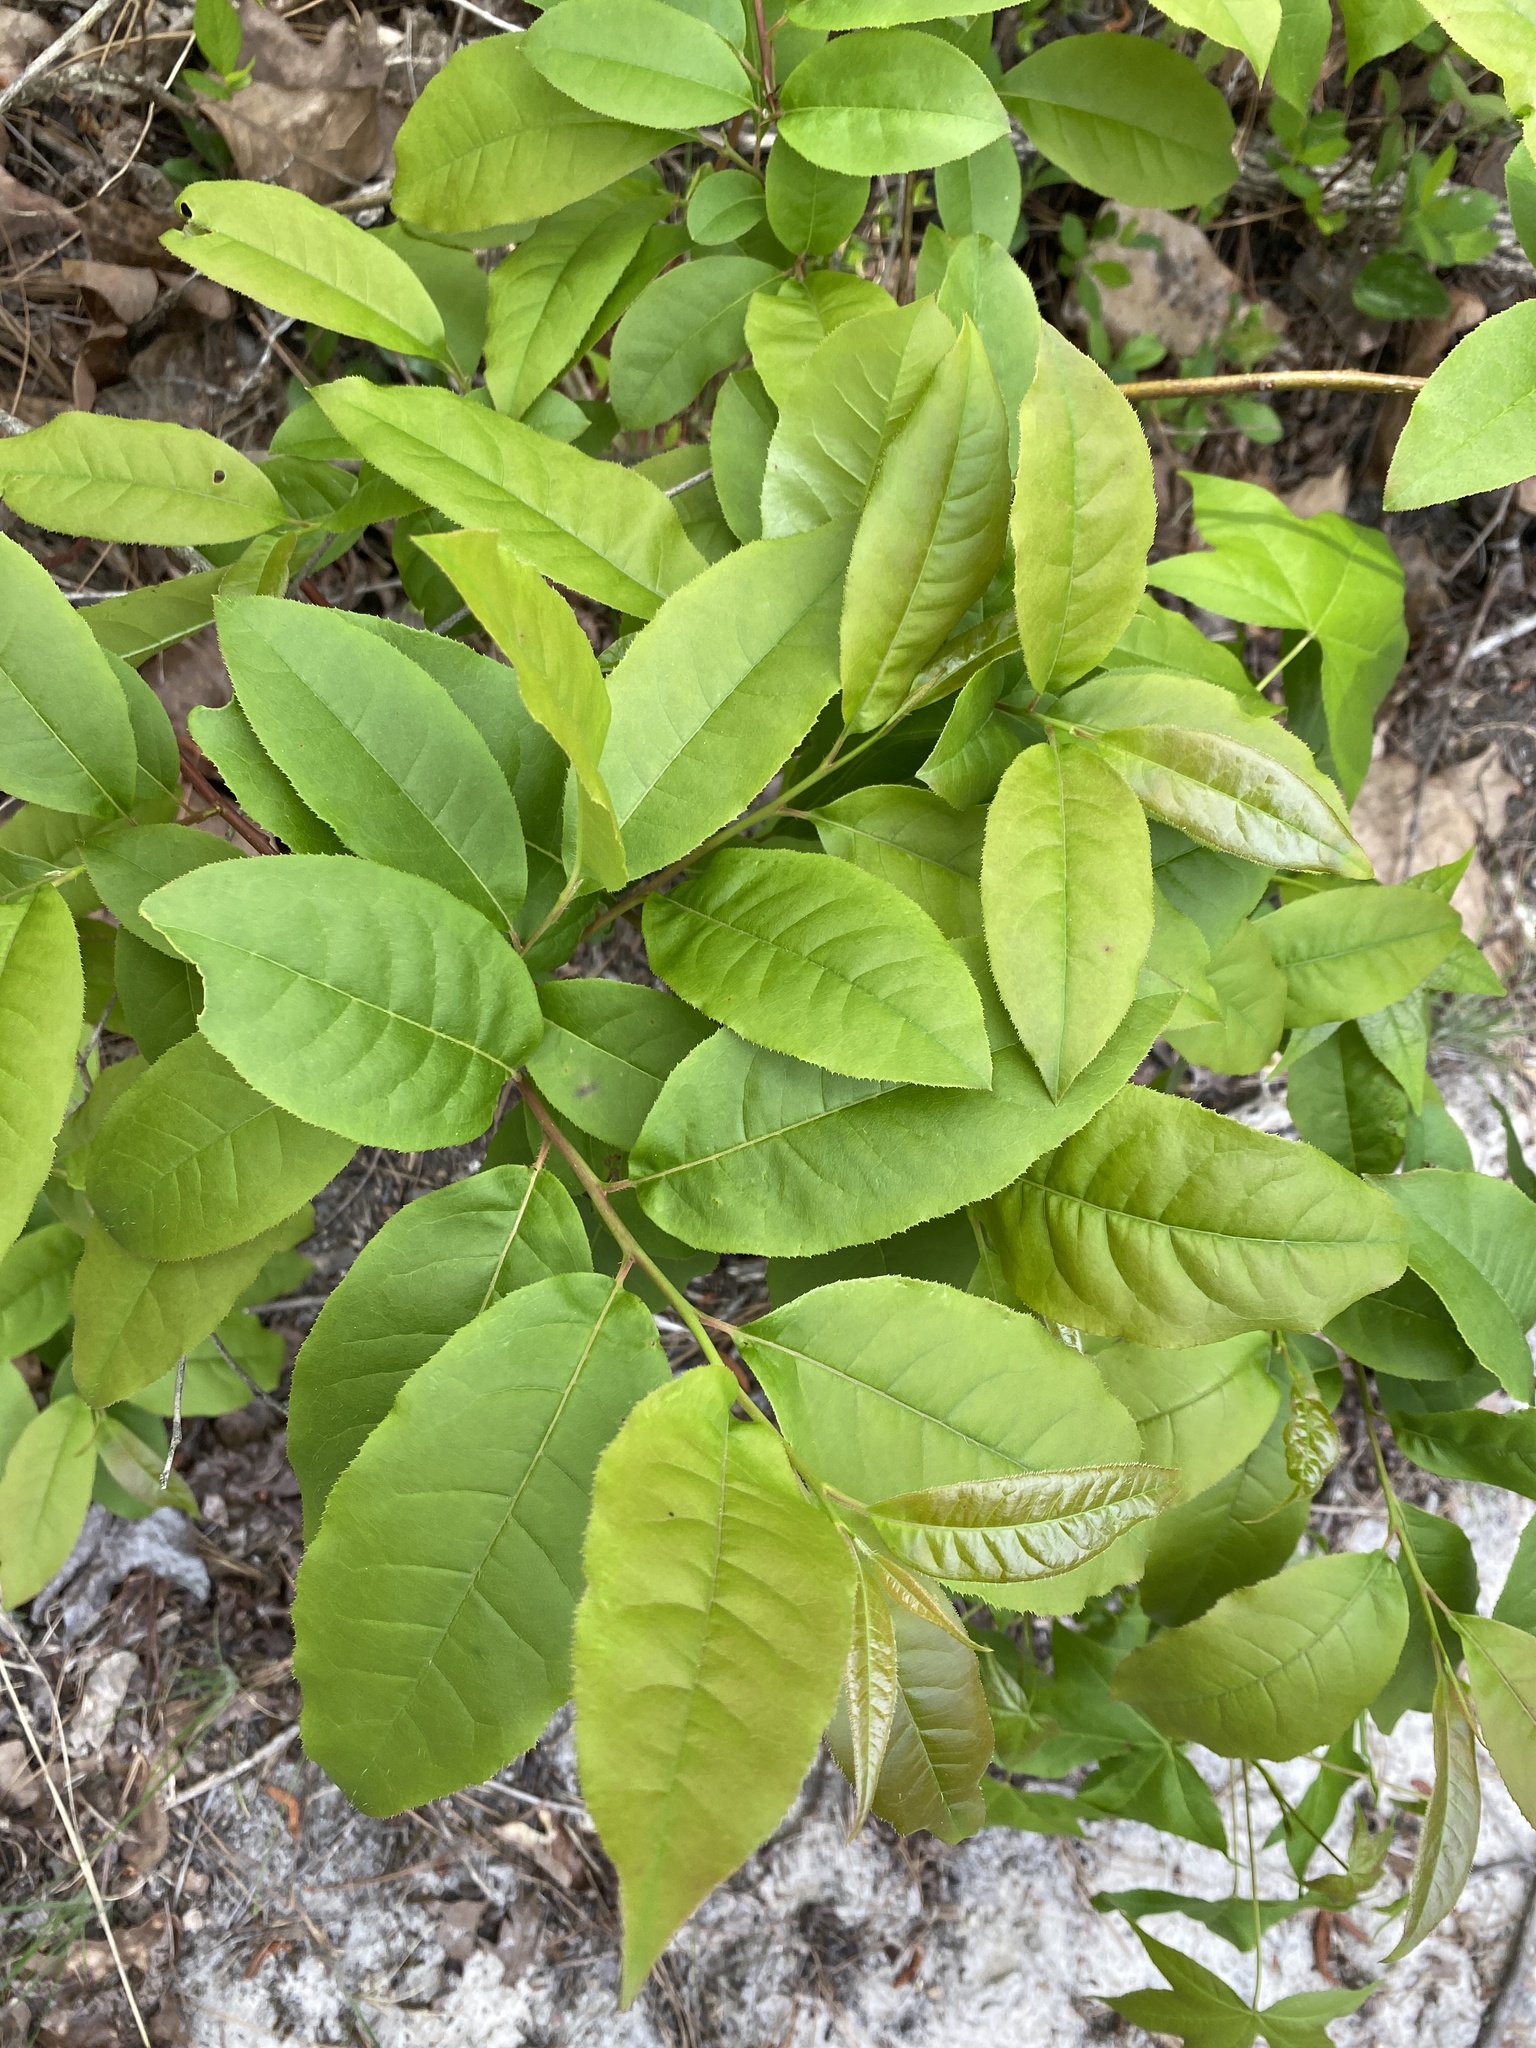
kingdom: Plantae
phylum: Tracheophyta
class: Magnoliopsida
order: Ericales
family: Ericaceae
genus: Oxydendrum
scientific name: Oxydendrum arboreum
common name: Sourwood
